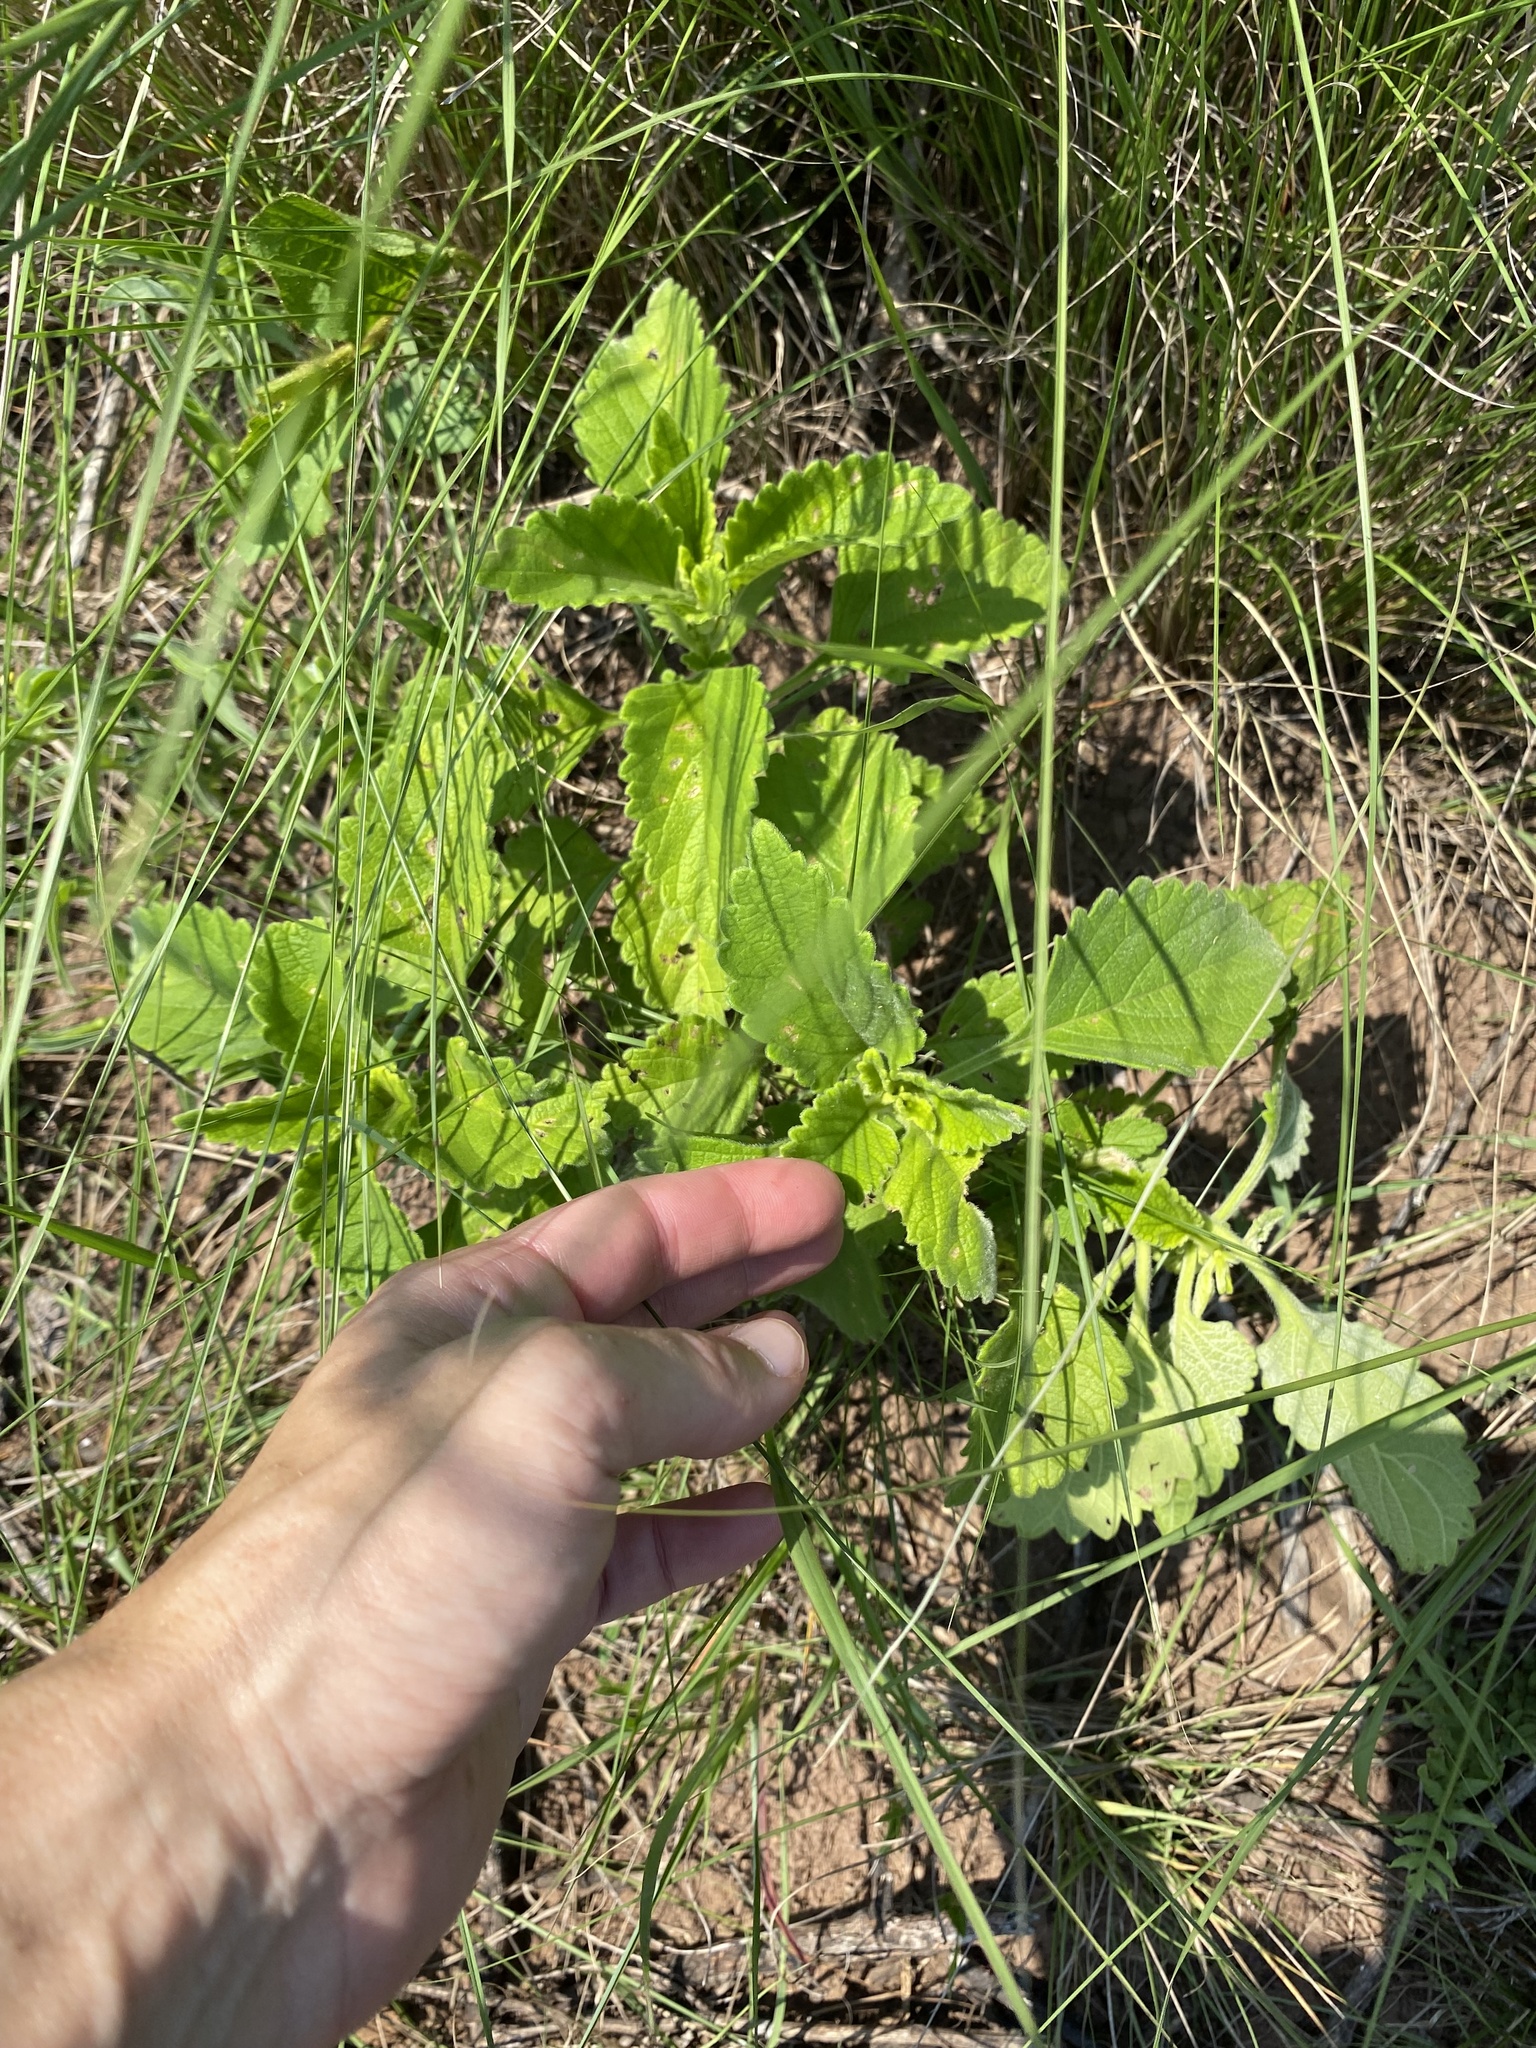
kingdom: Plantae
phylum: Tracheophyta
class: Magnoliopsida
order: Lamiales
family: Lamiaceae
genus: Coleus
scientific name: Coleus hadiensis
